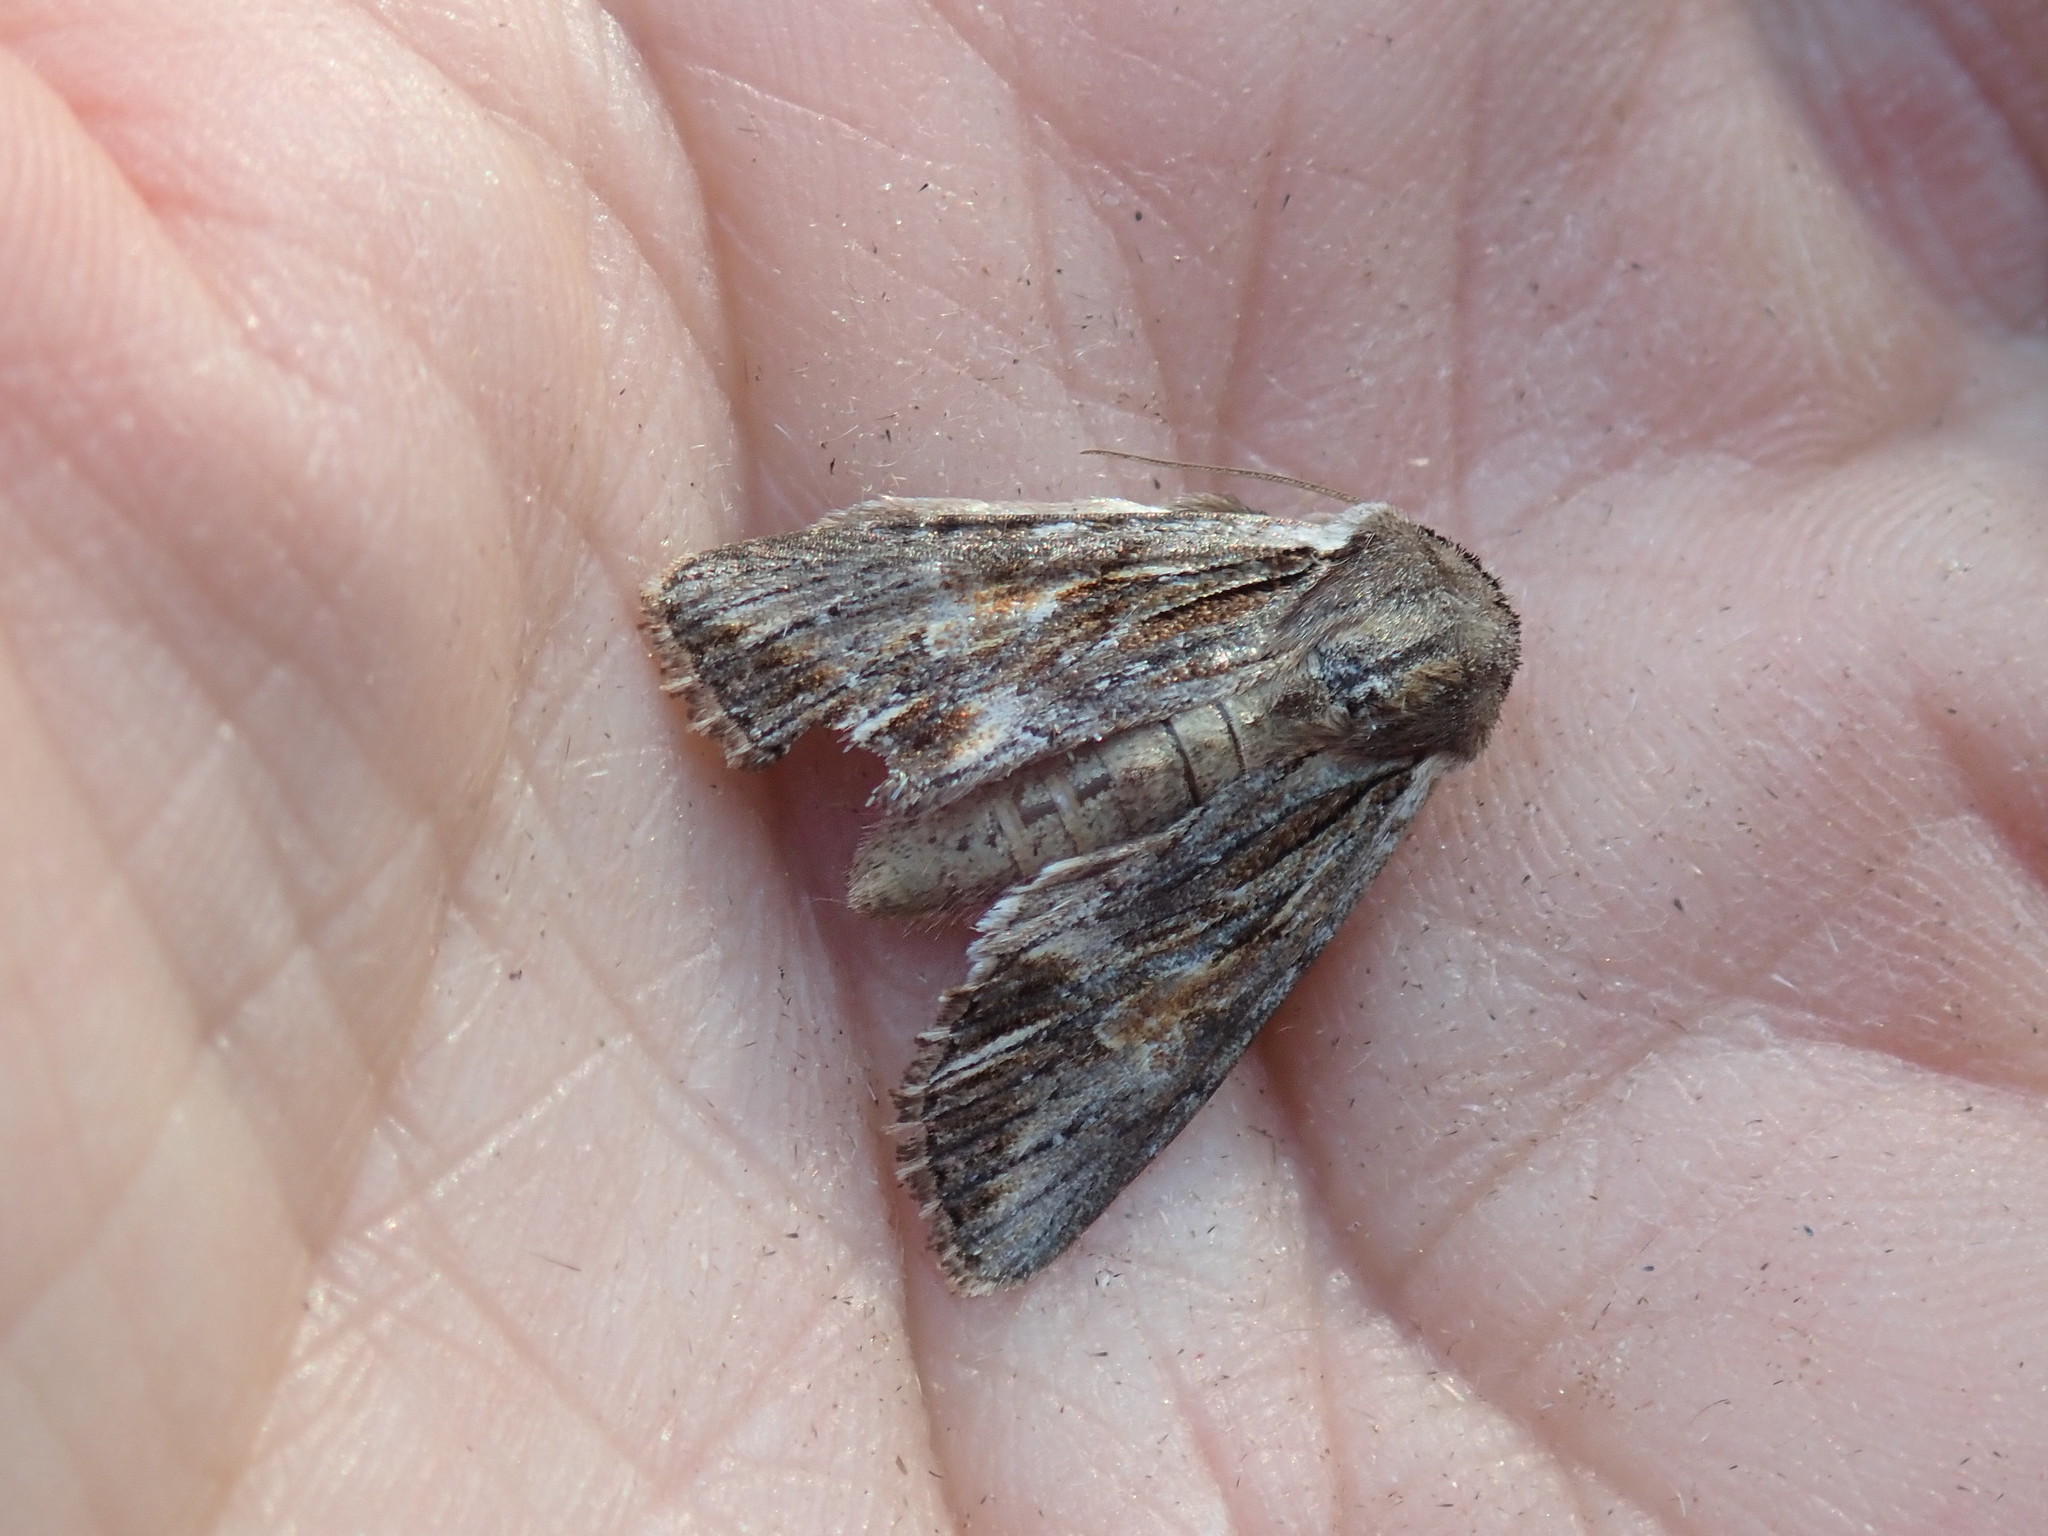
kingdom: Animalia
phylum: Arthropoda
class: Insecta
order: Lepidoptera
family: Noctuidae
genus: Achatia
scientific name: Achatia evicta
